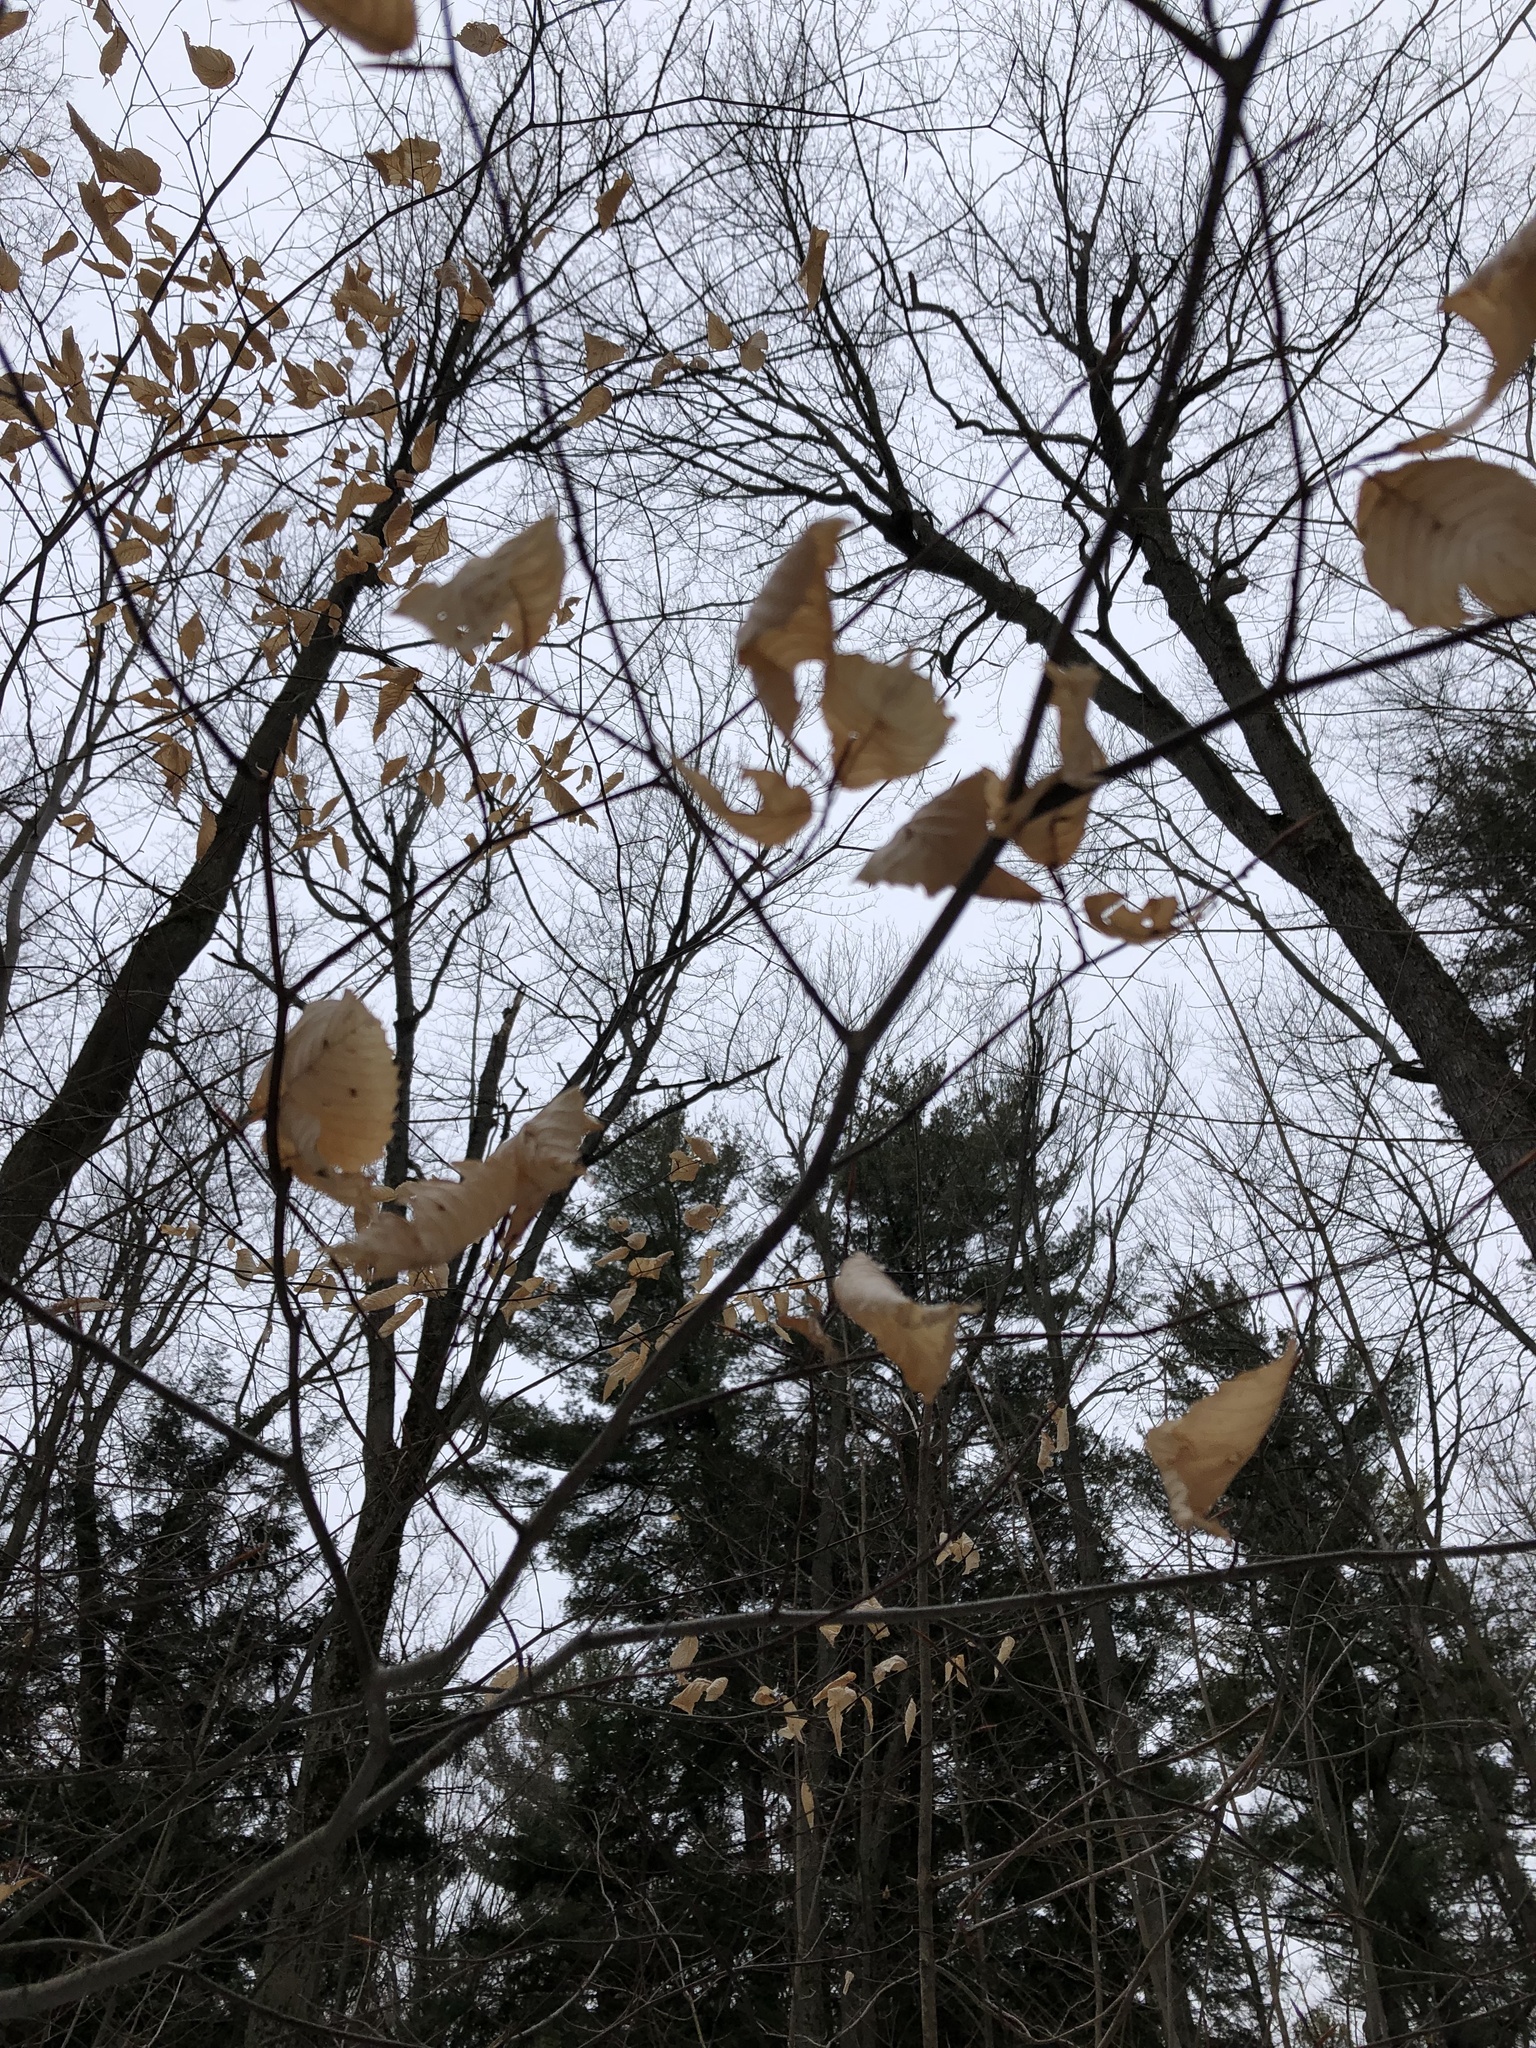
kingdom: Plantae
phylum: Tracheophyta
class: Magnoliopsida
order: Fagales
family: Fagaceae
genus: Fagus
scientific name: Fagus grandifolia
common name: American beech
